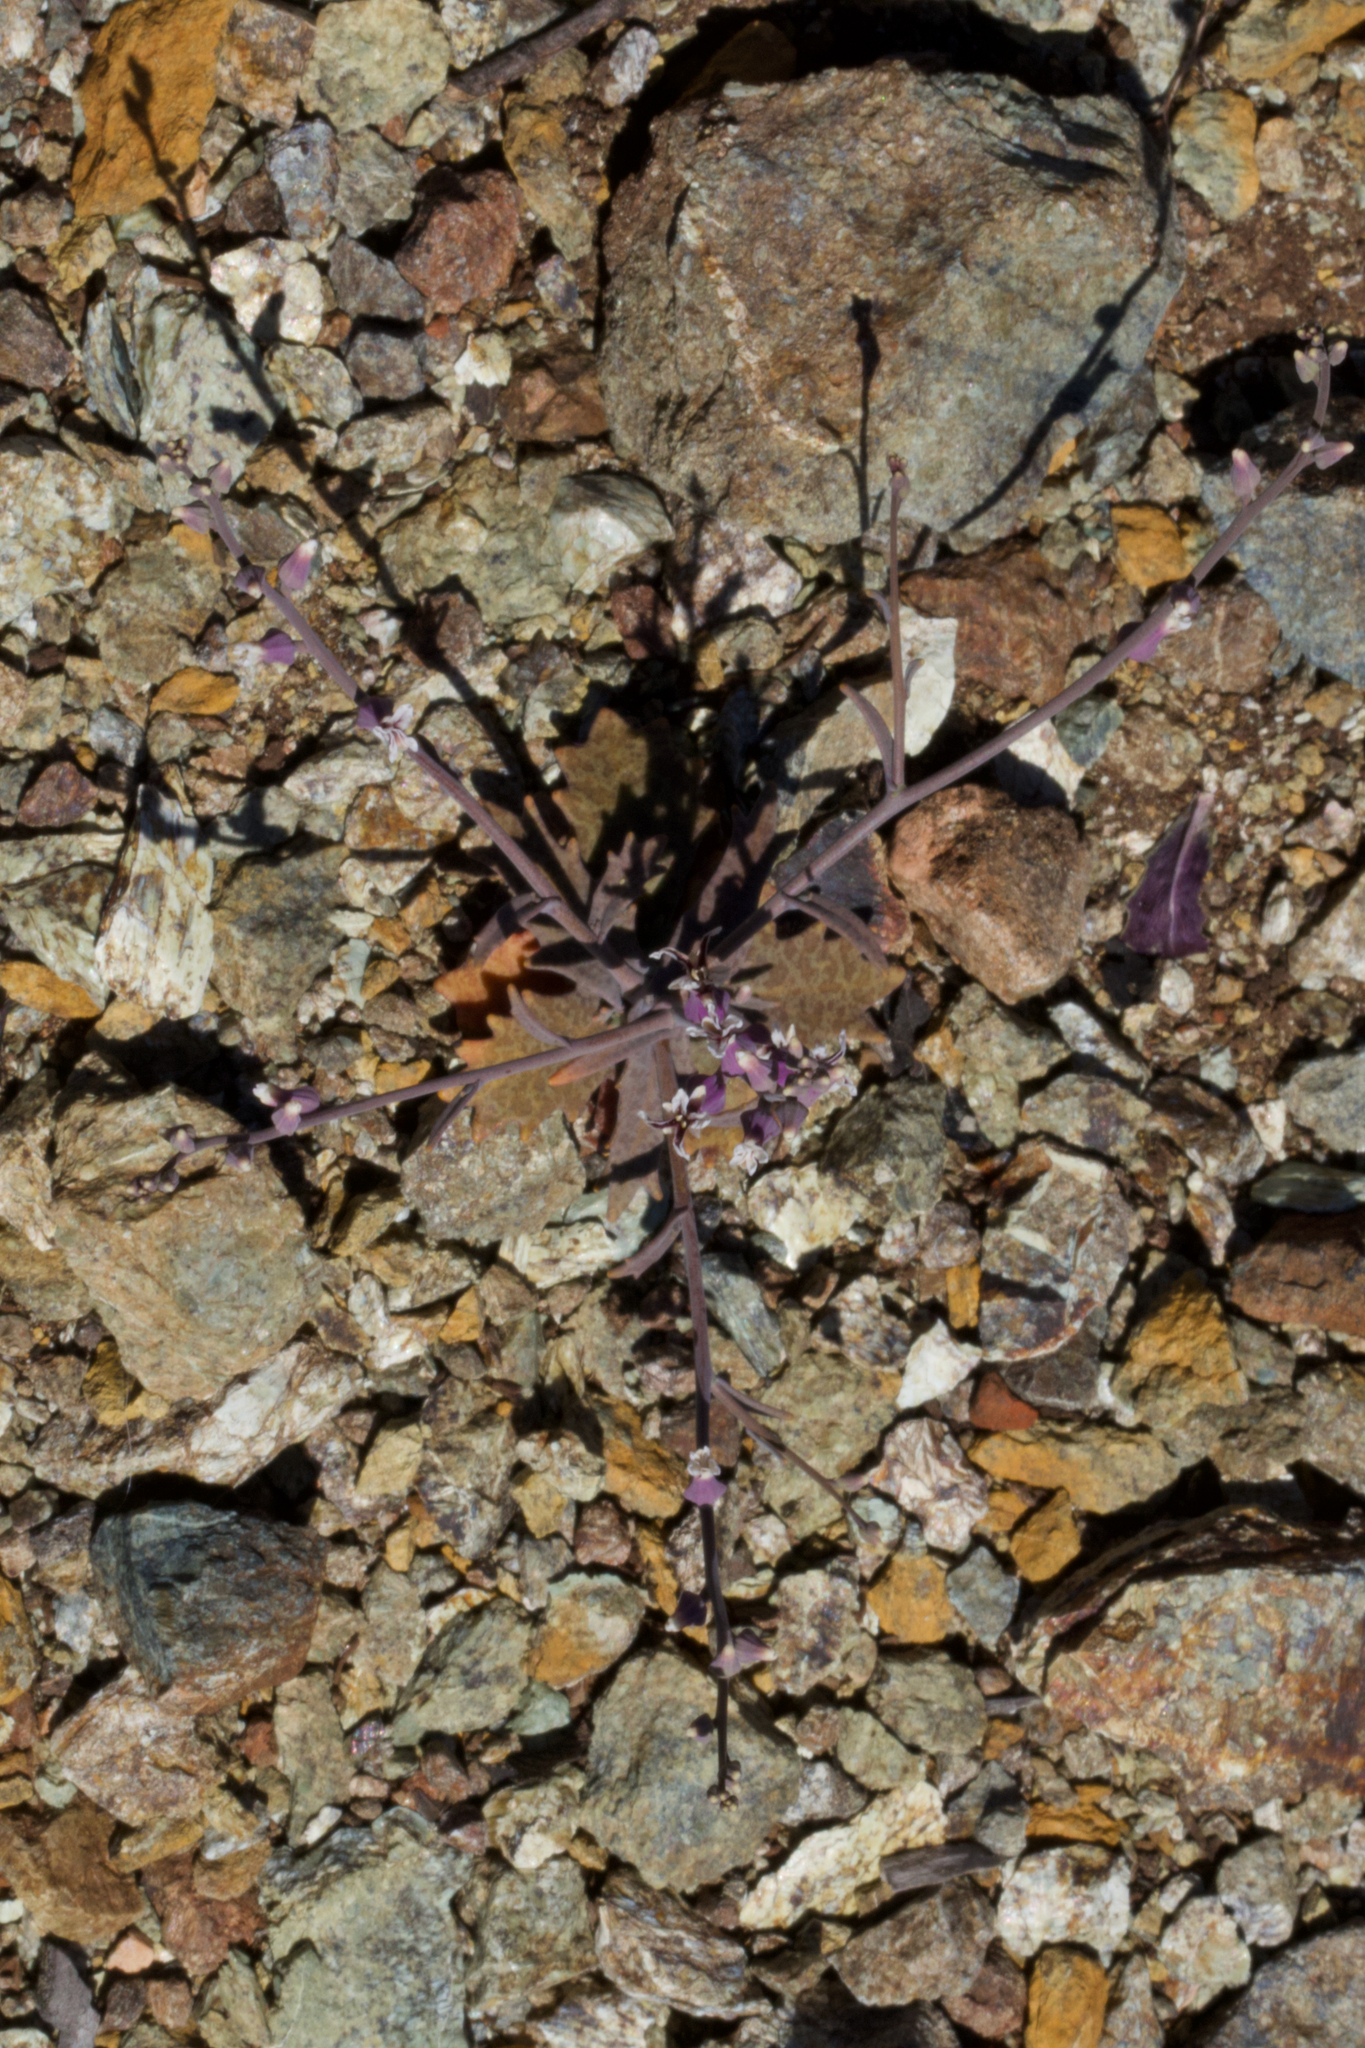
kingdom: Plantae
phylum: Tracheophyta
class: Magnoliopsida
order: Brassicales
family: Brassicaceae
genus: Streptanthus
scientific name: Streptanthus batrachopus
